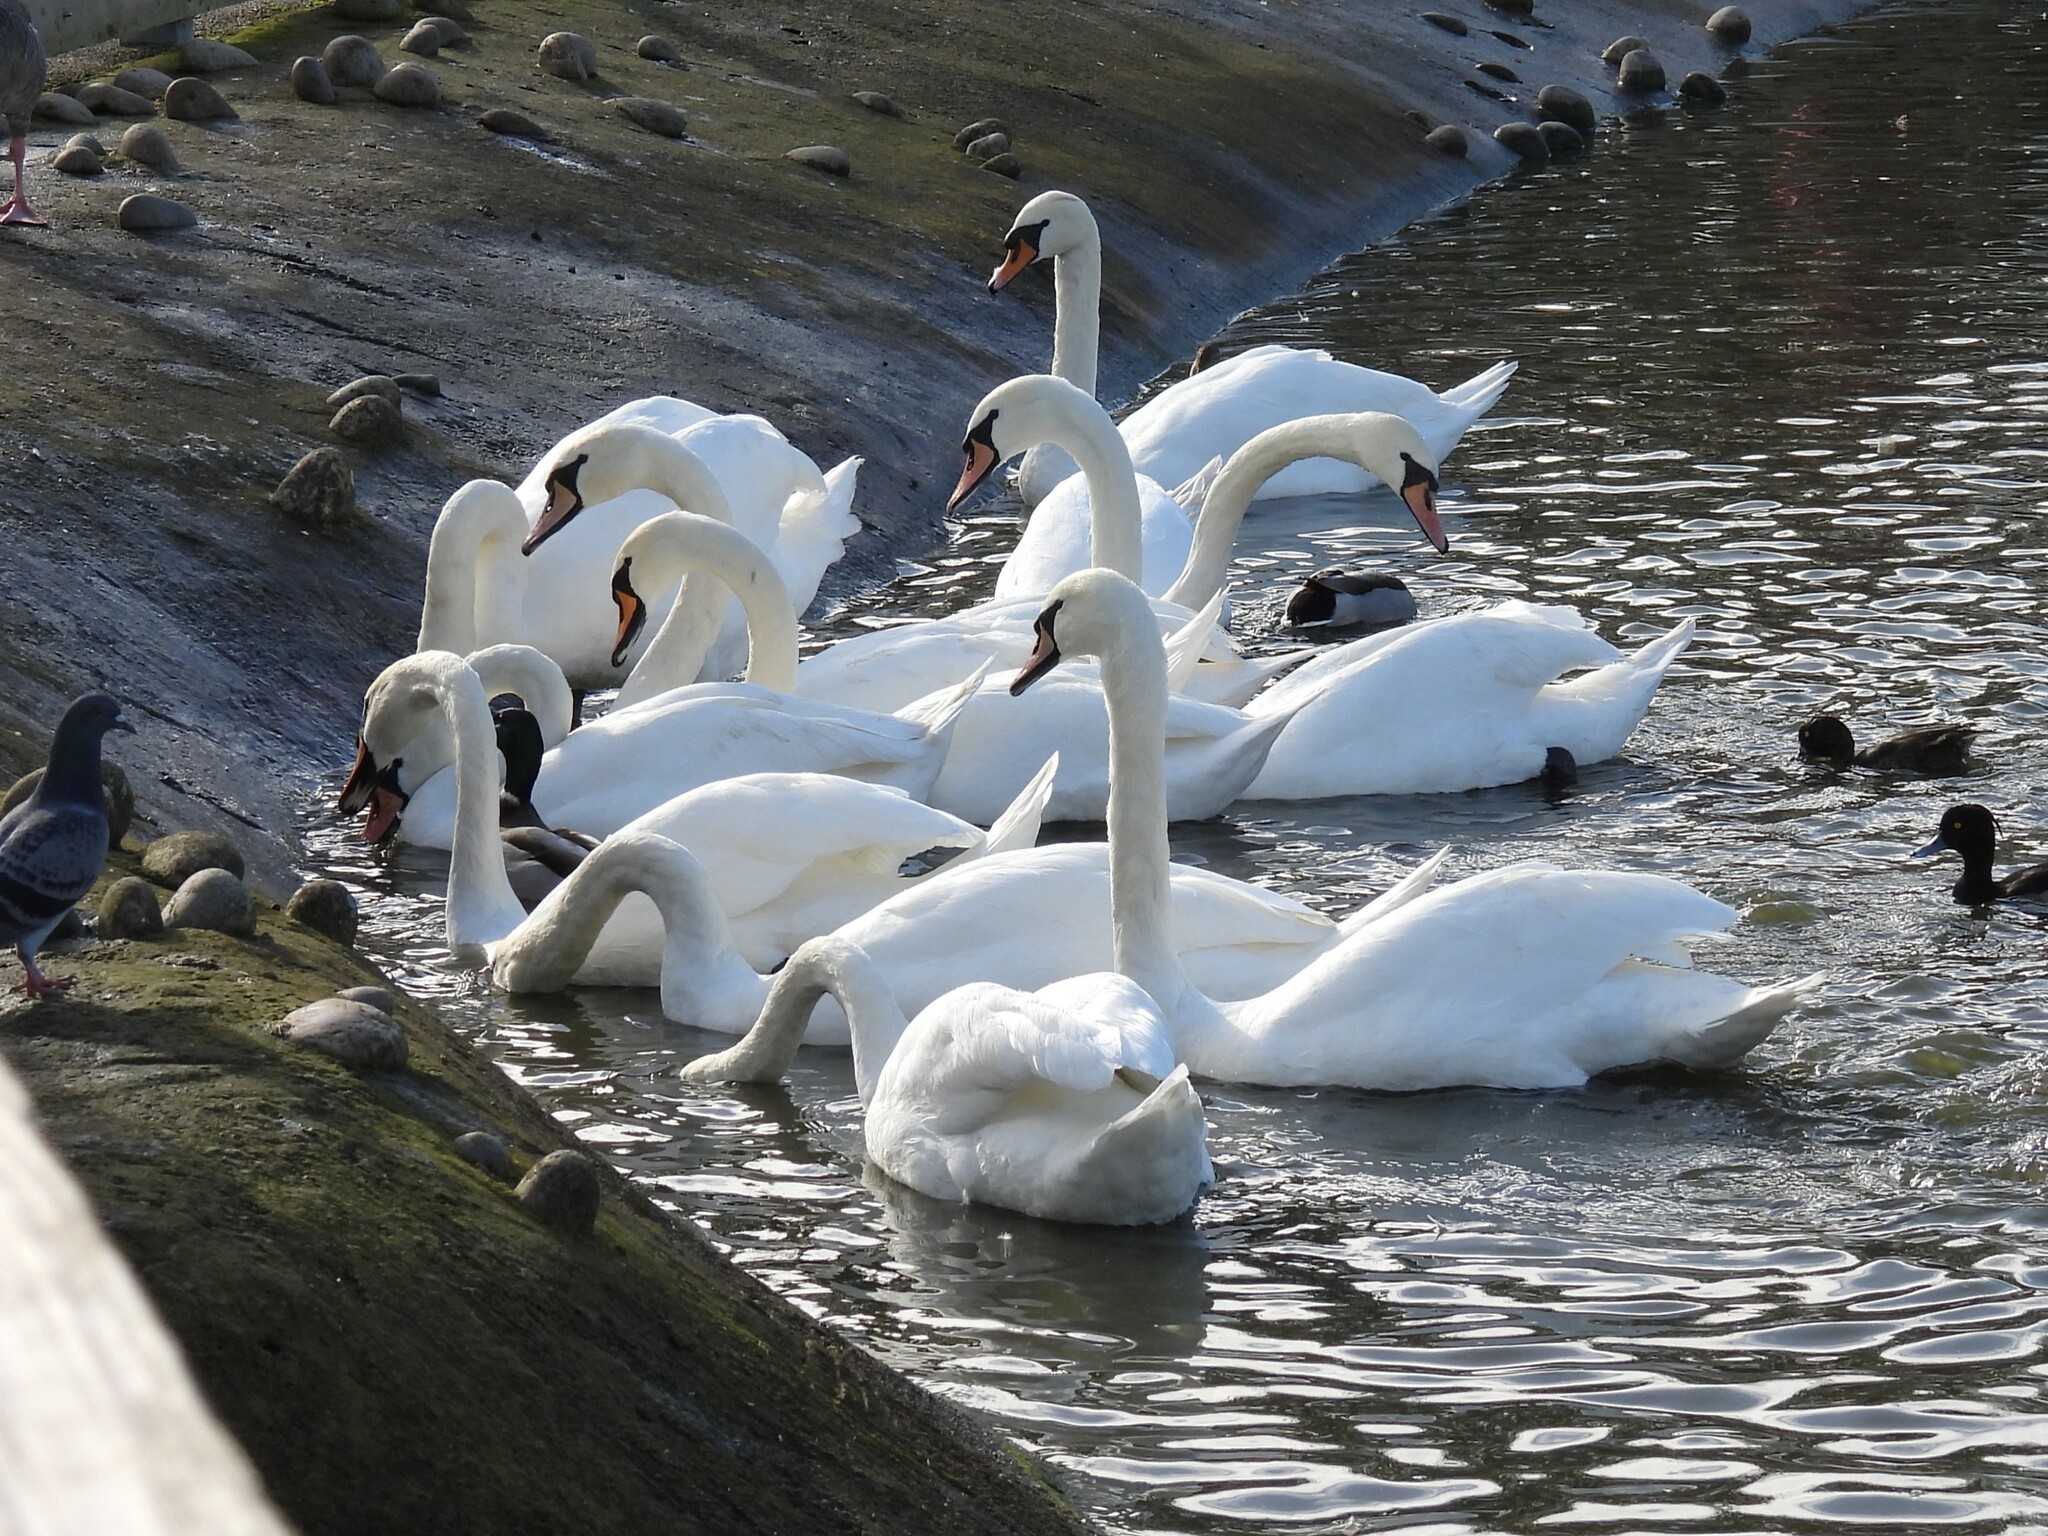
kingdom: Animalia
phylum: Chordata
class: Aves
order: Anseriformes
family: Anatidae
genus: Cygnus
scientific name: Cygnus olor
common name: Mute swan
